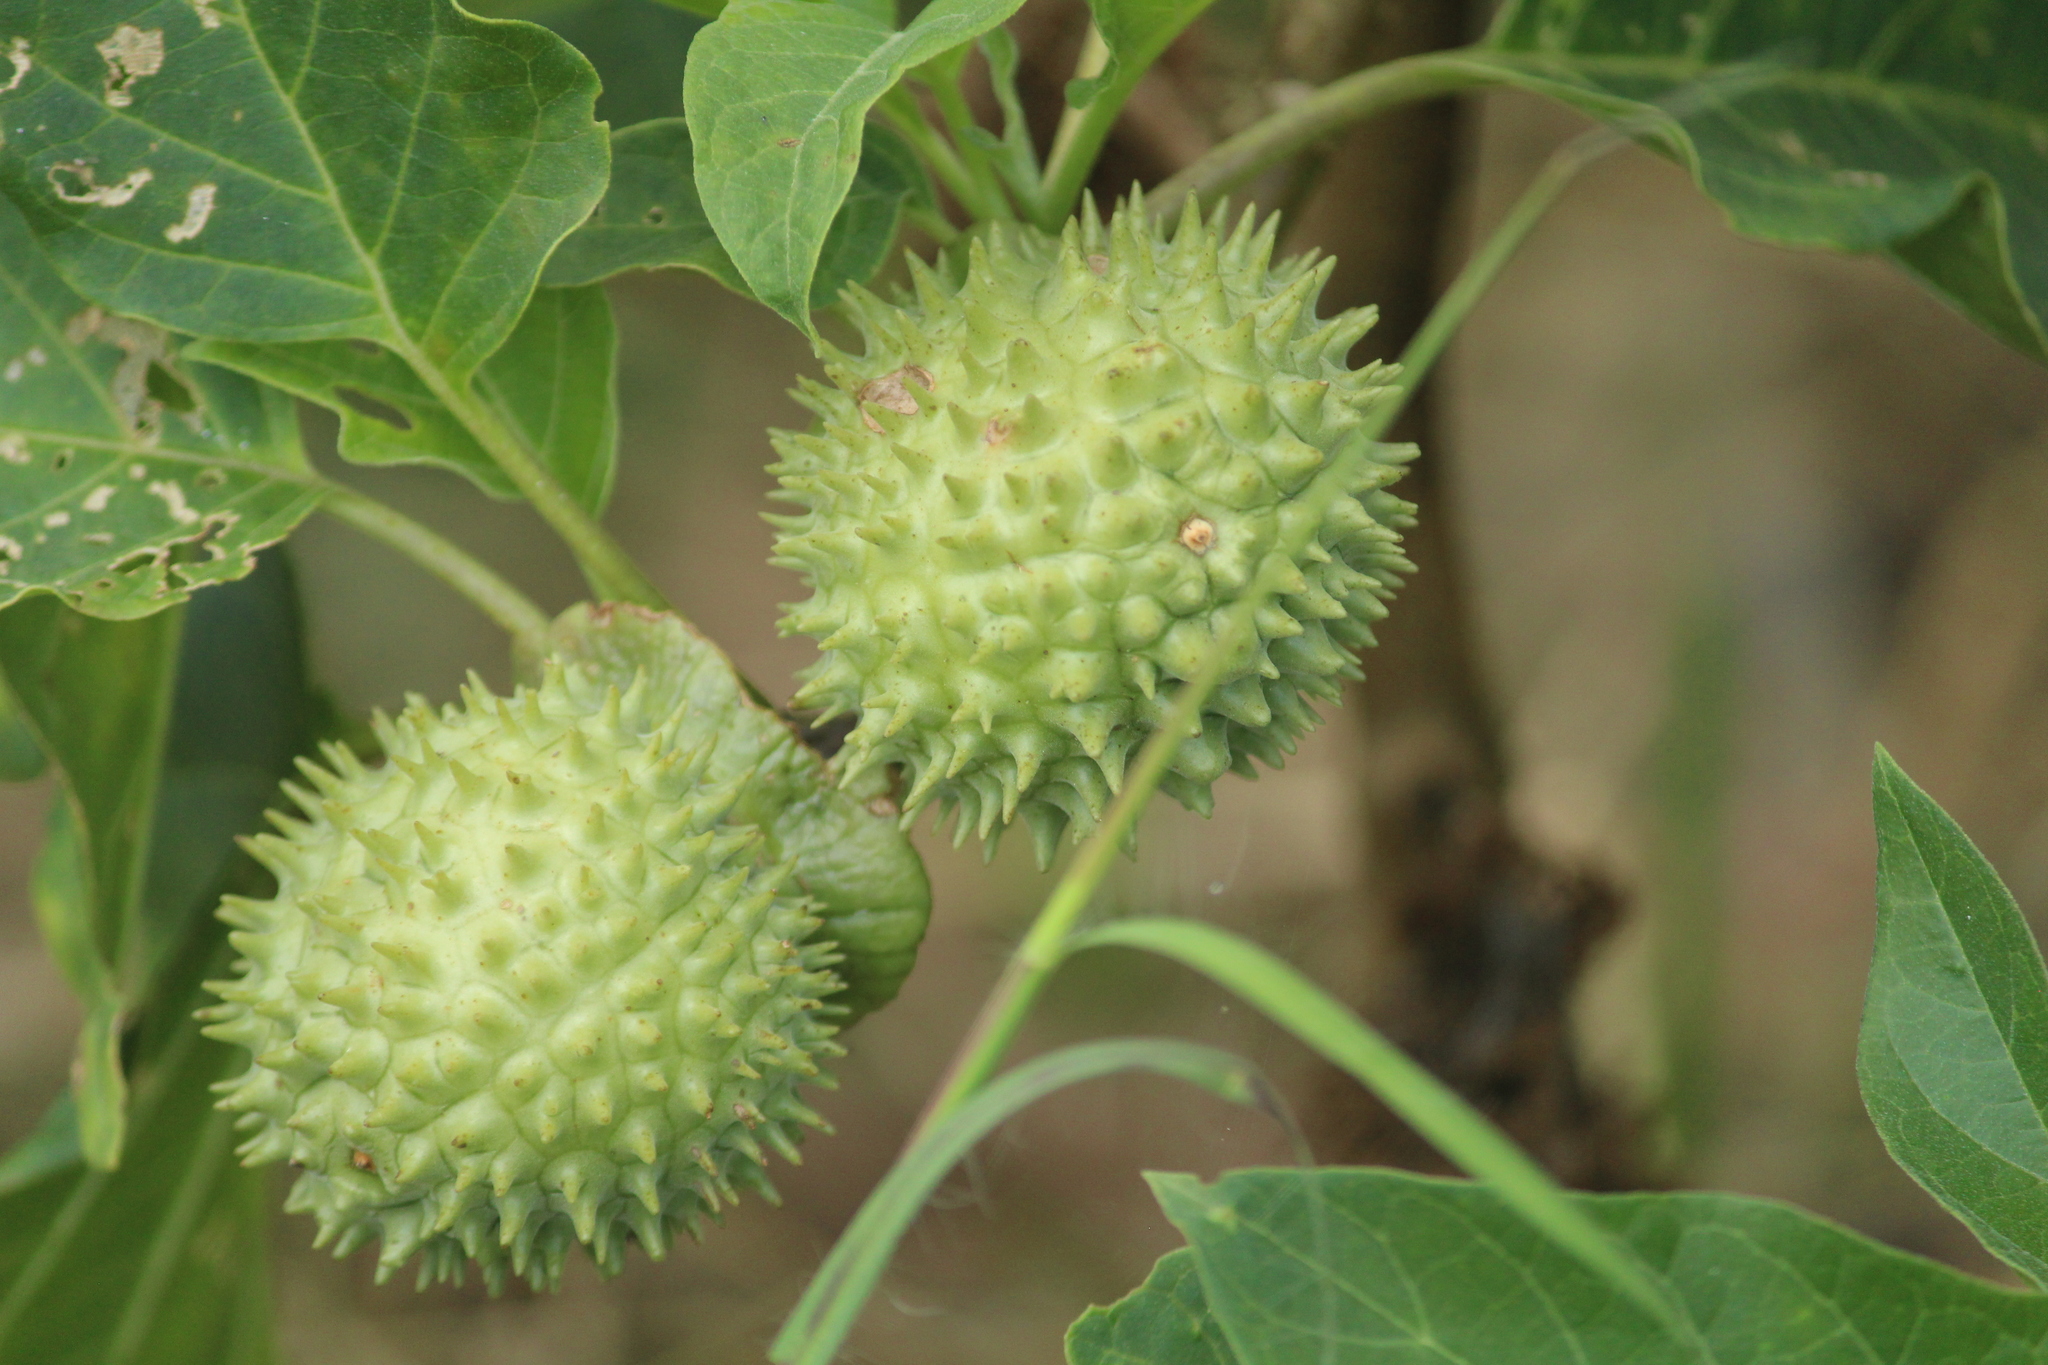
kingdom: Plantae
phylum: Tracheophyta
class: Magnoliopsida
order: Solanales
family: Solanaceae
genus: Datura
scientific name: Datura metel
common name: Jimsonweed
